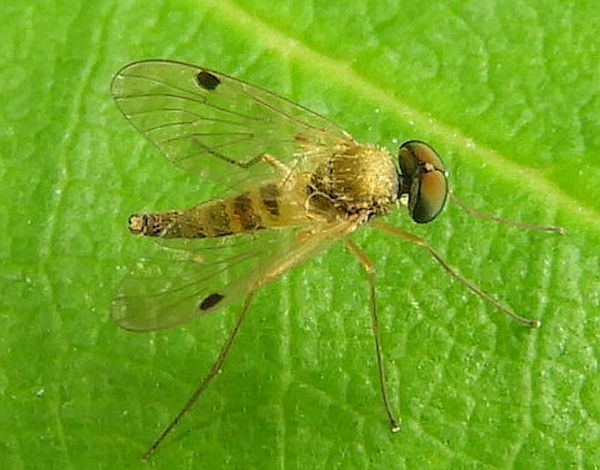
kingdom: Animalia
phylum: Arthropoda
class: Insecta
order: Diptera
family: Rhagionidae
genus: Chrysopilus
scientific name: Chrysopilus modestus
